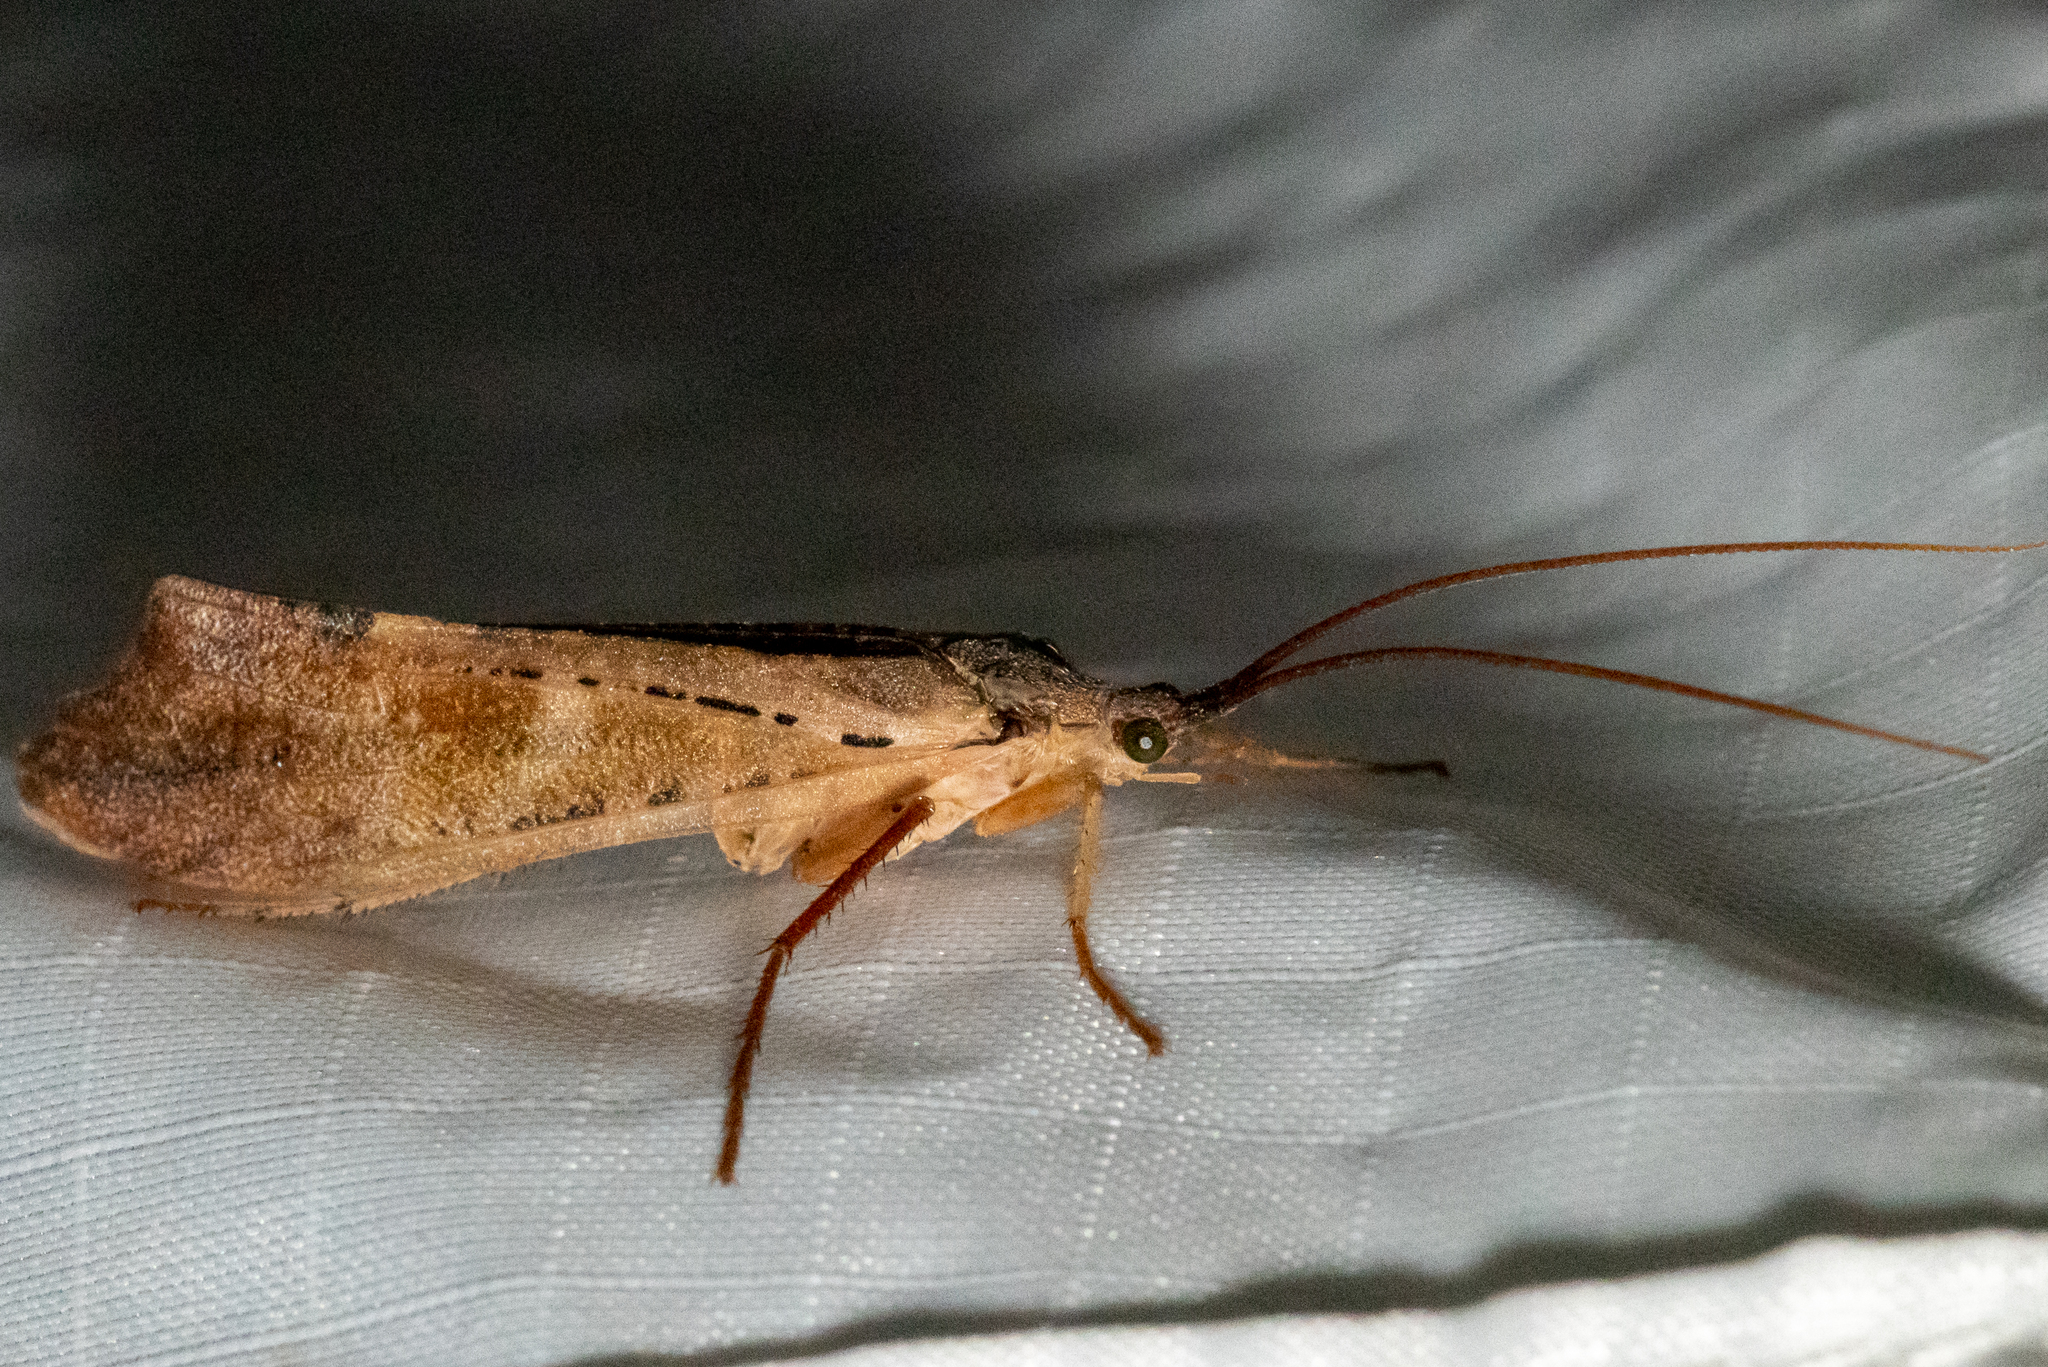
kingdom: Animalia
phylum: Arthropoda
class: Insecta
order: Trichoptera
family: Limnephilidae
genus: Nemotaulius
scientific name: Nemotaulius hostilis
